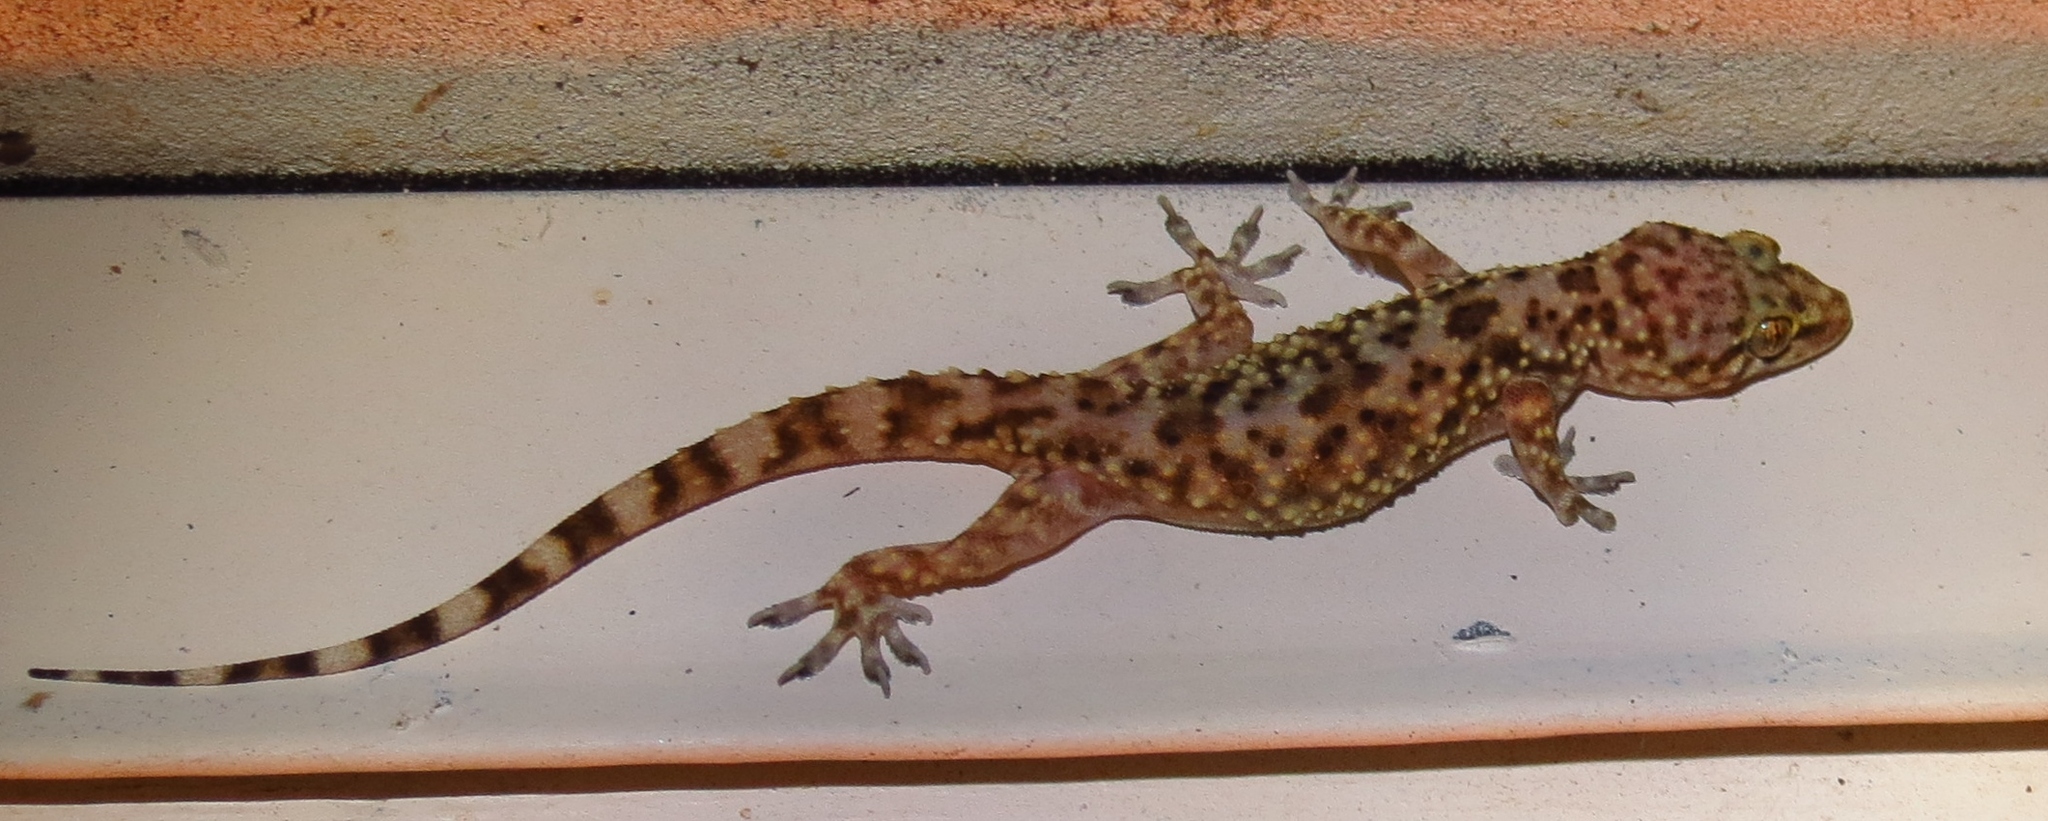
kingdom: Animalia
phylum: Chordata
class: Squamata
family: Gekkonidae
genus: Hemidactylus
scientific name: Hemidactylus turcicus
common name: Turkish gecko
